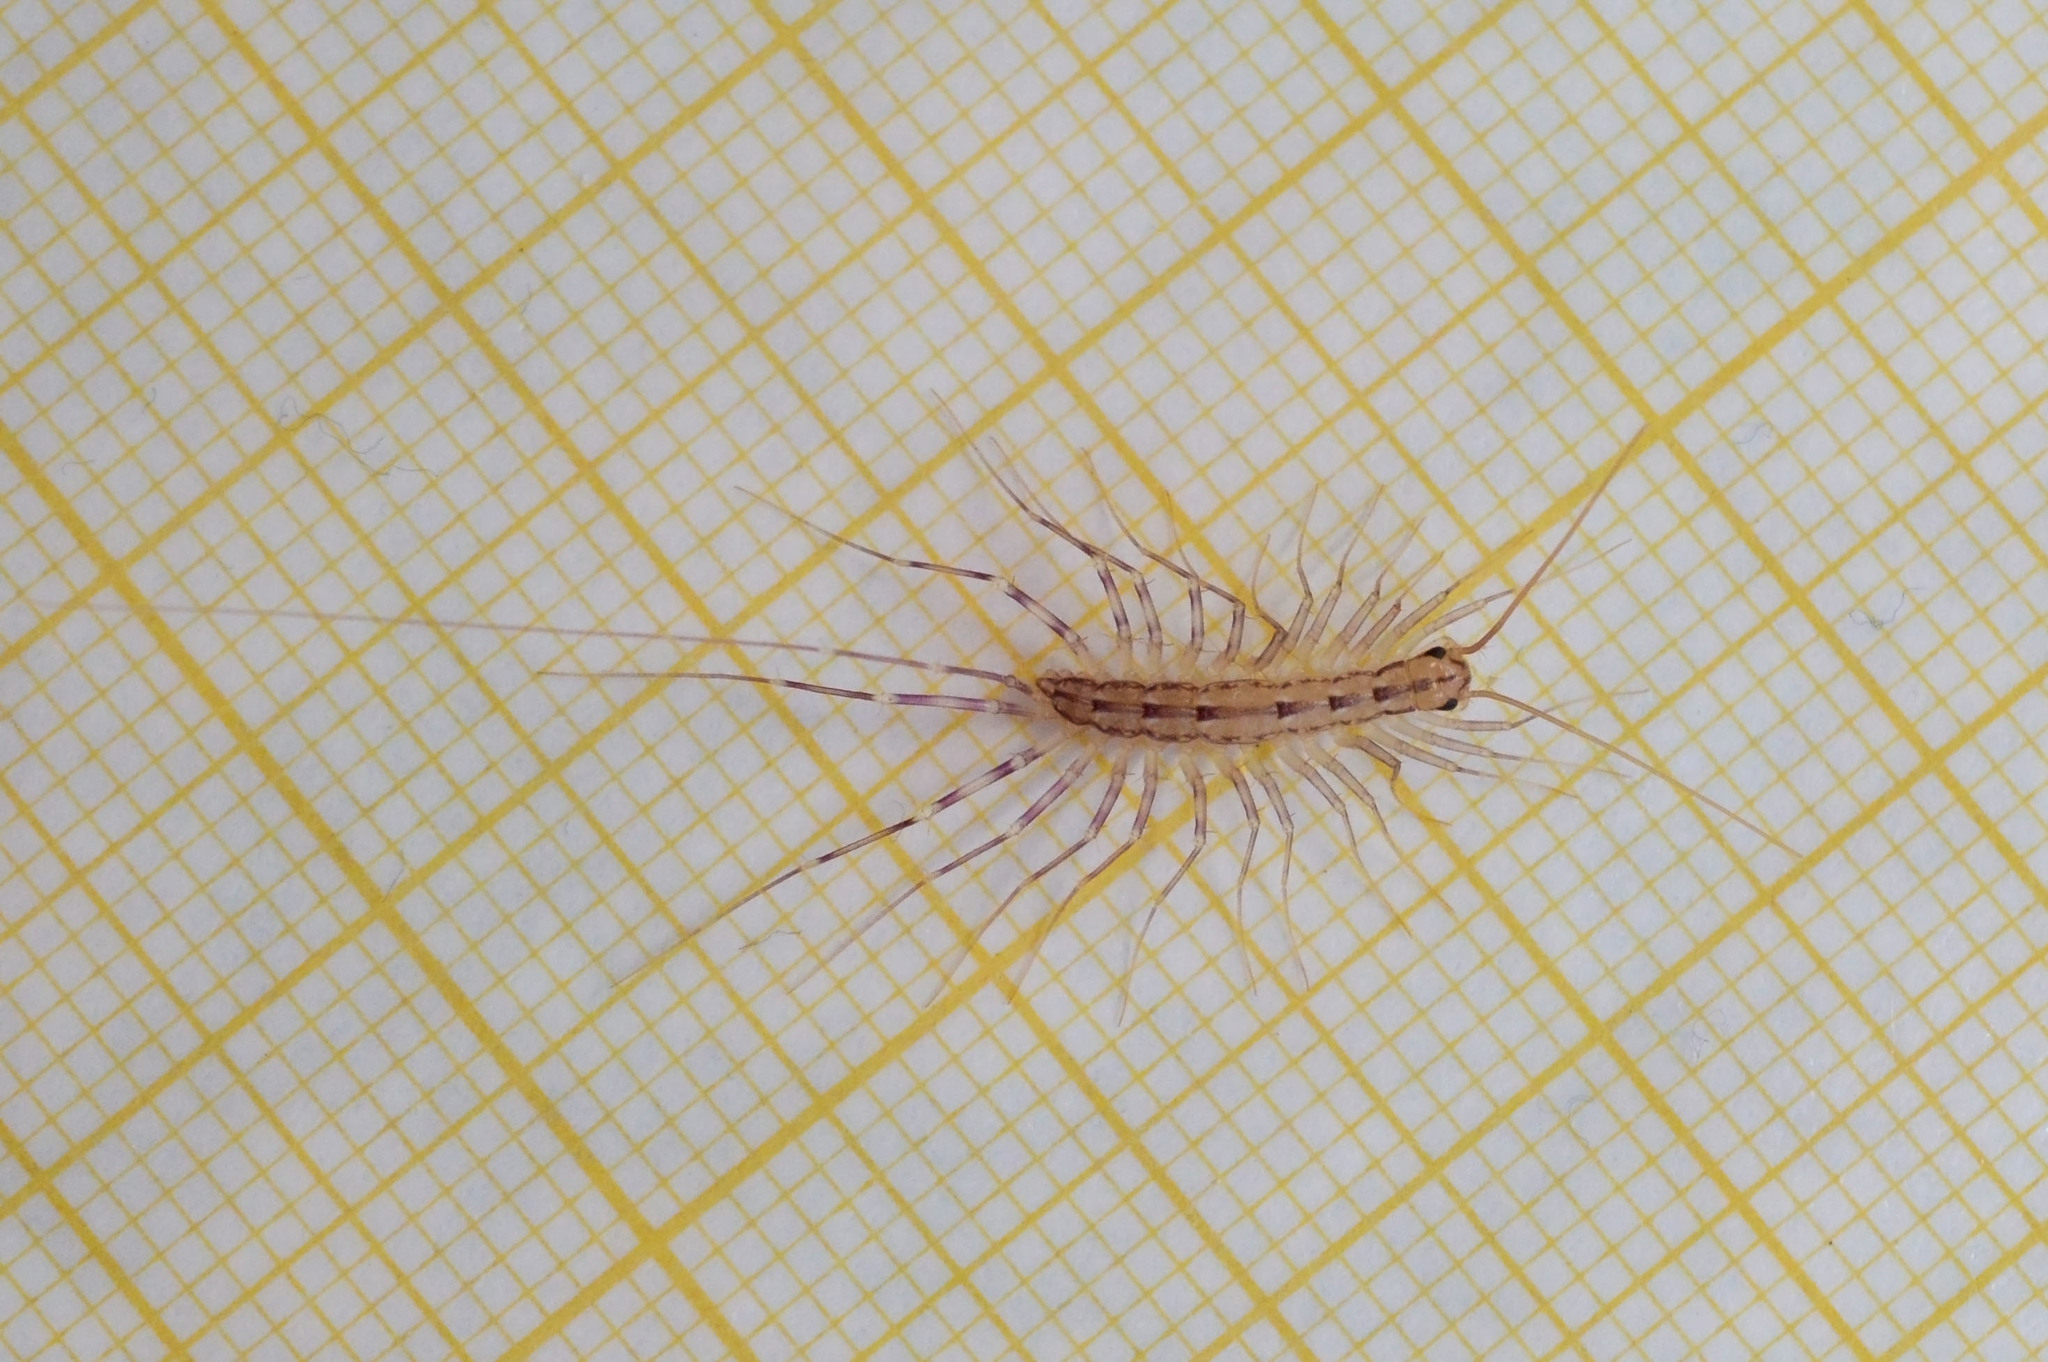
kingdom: Animalia
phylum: Arthropoda
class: Chilopoda
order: Scutigeromorpha
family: Scutigeridae
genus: Scutigera
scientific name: Scutigera coleoptrata
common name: House centipede
